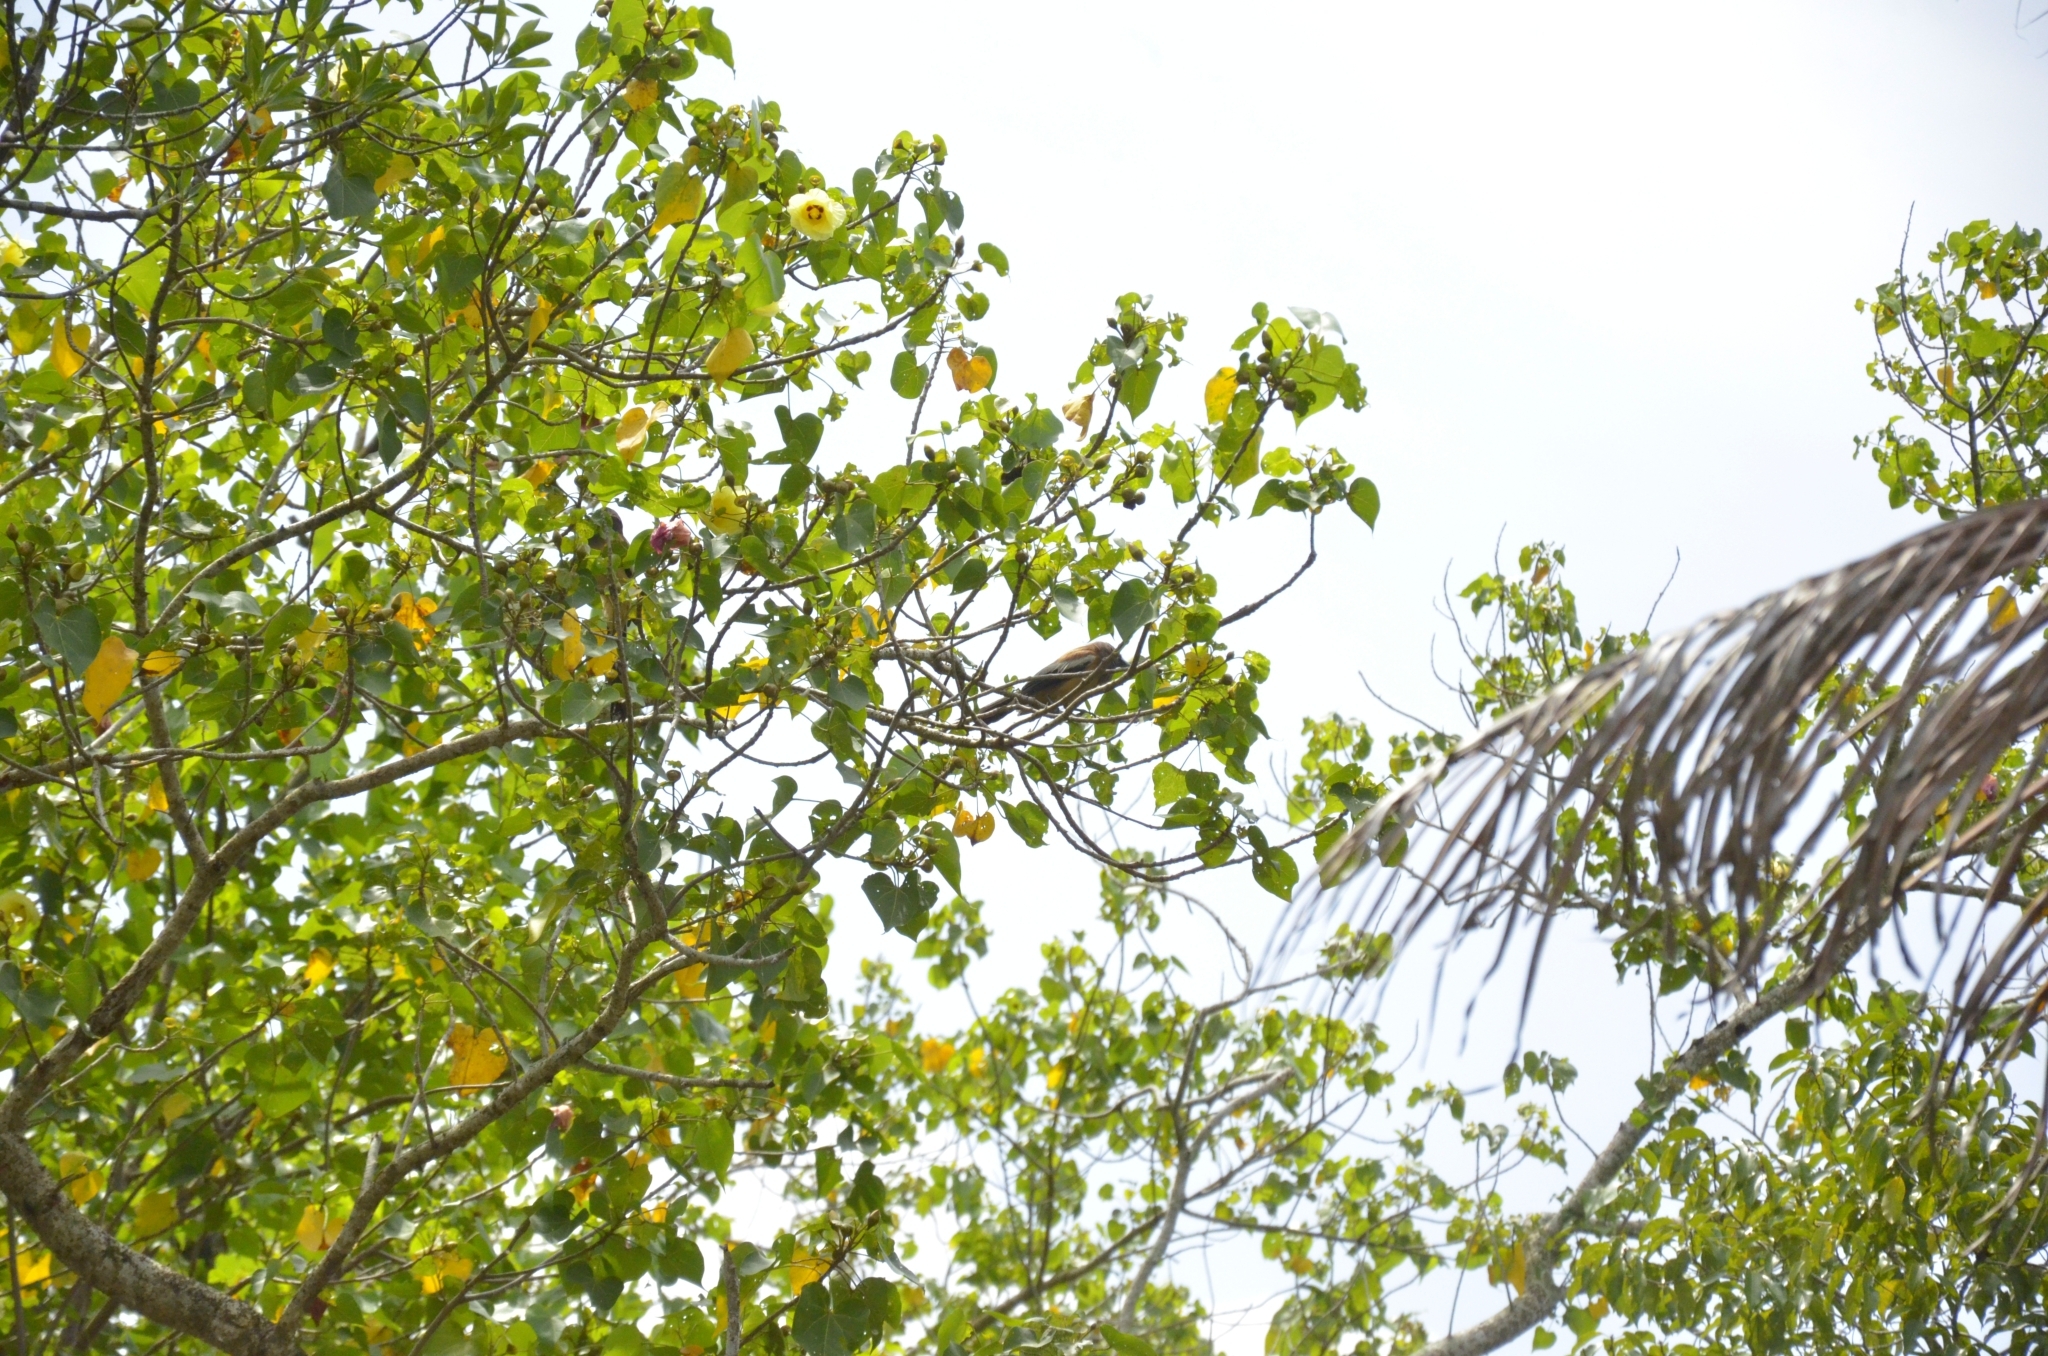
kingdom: Plantae
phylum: Tracheophyta
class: Magnoliopsida
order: Malvales
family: Malvaceae
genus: Thespesia
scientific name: Thespesia populnea
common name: Seaside mahoe
